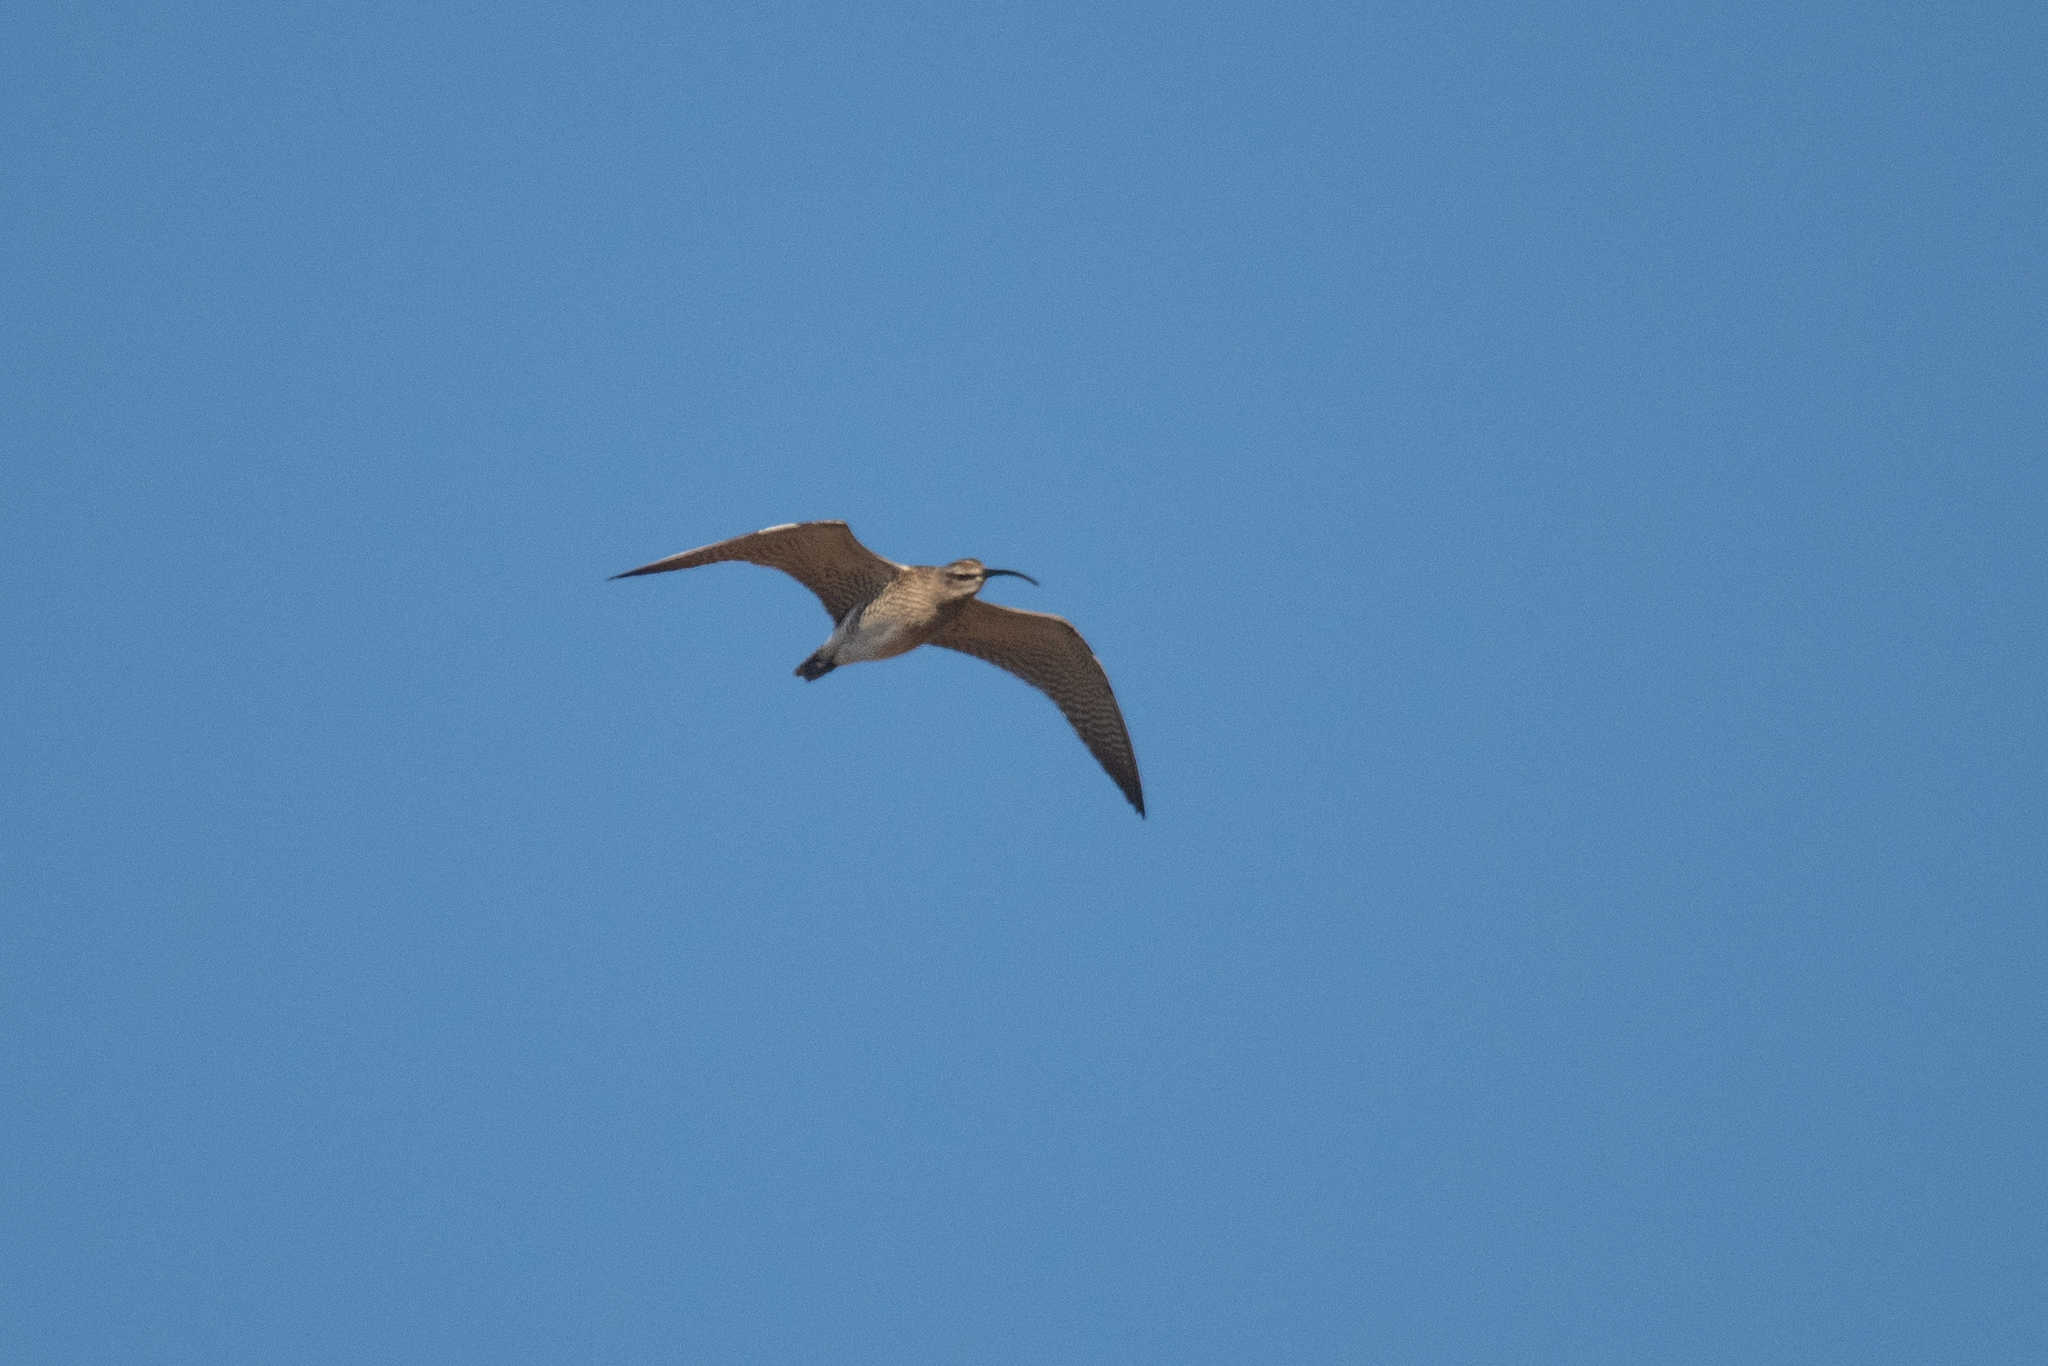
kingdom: Animalia
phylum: Chordata
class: Aves
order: Charadriiformes
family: Scolopacidae
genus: Numenius
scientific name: Numenius phaeopus
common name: Whimbrel
